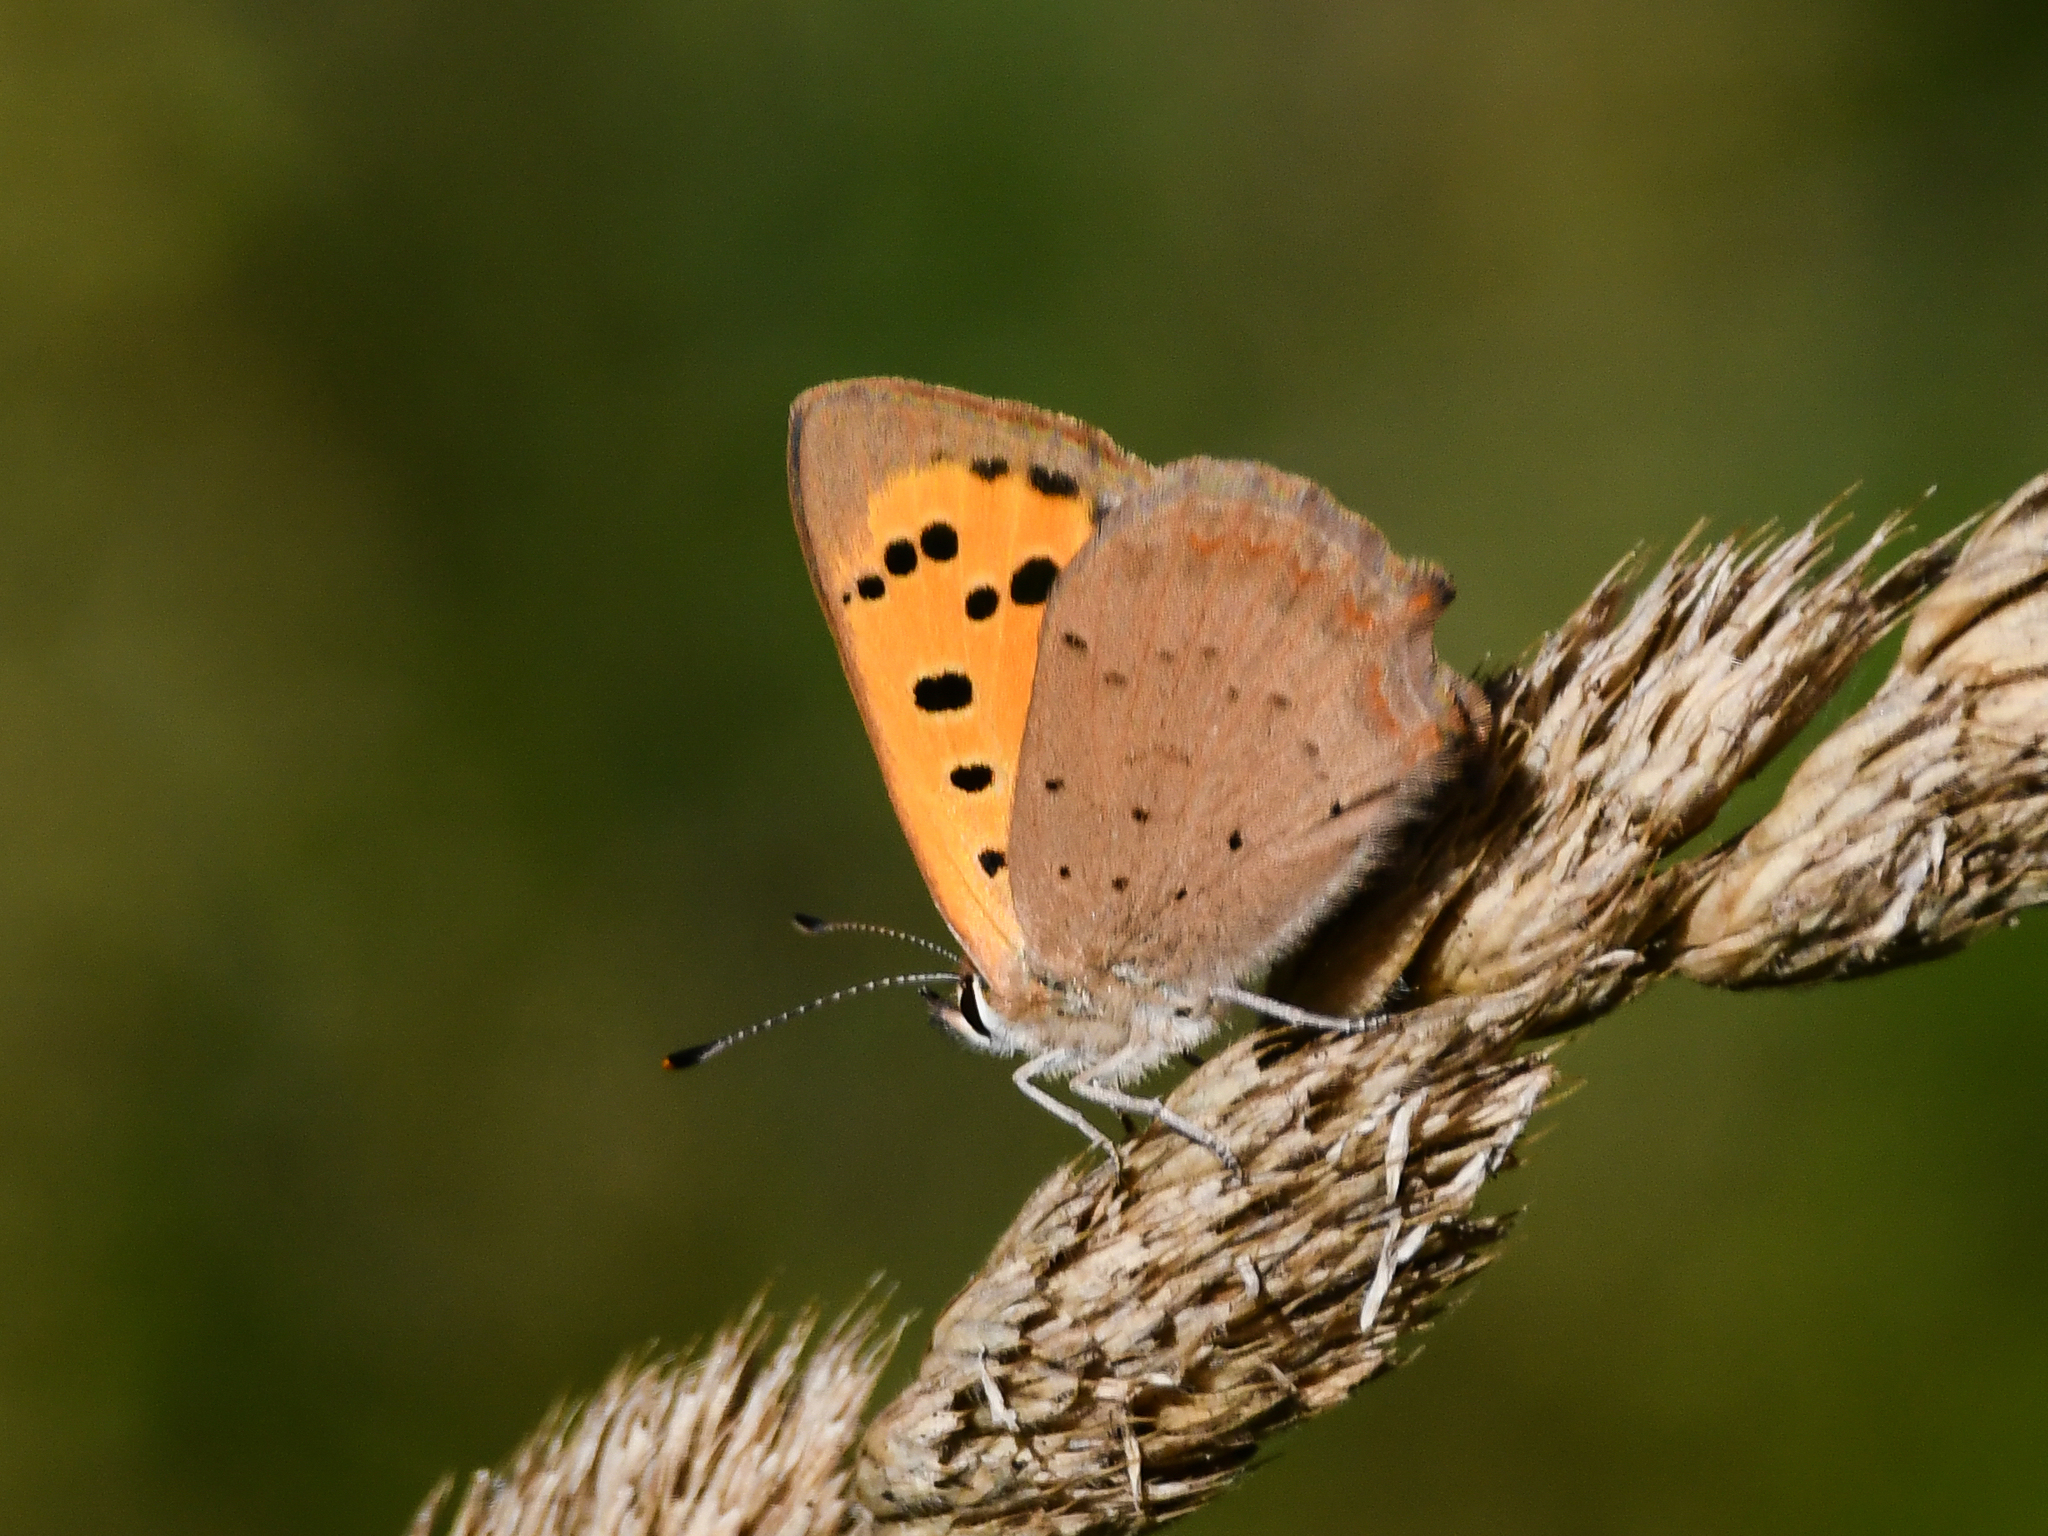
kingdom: Animalia
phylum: Arthropoda
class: Insecta
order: Lepidoptera
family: Lycaenidae
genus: Lycaena
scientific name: Lycaena phlaeas
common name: Small copper
